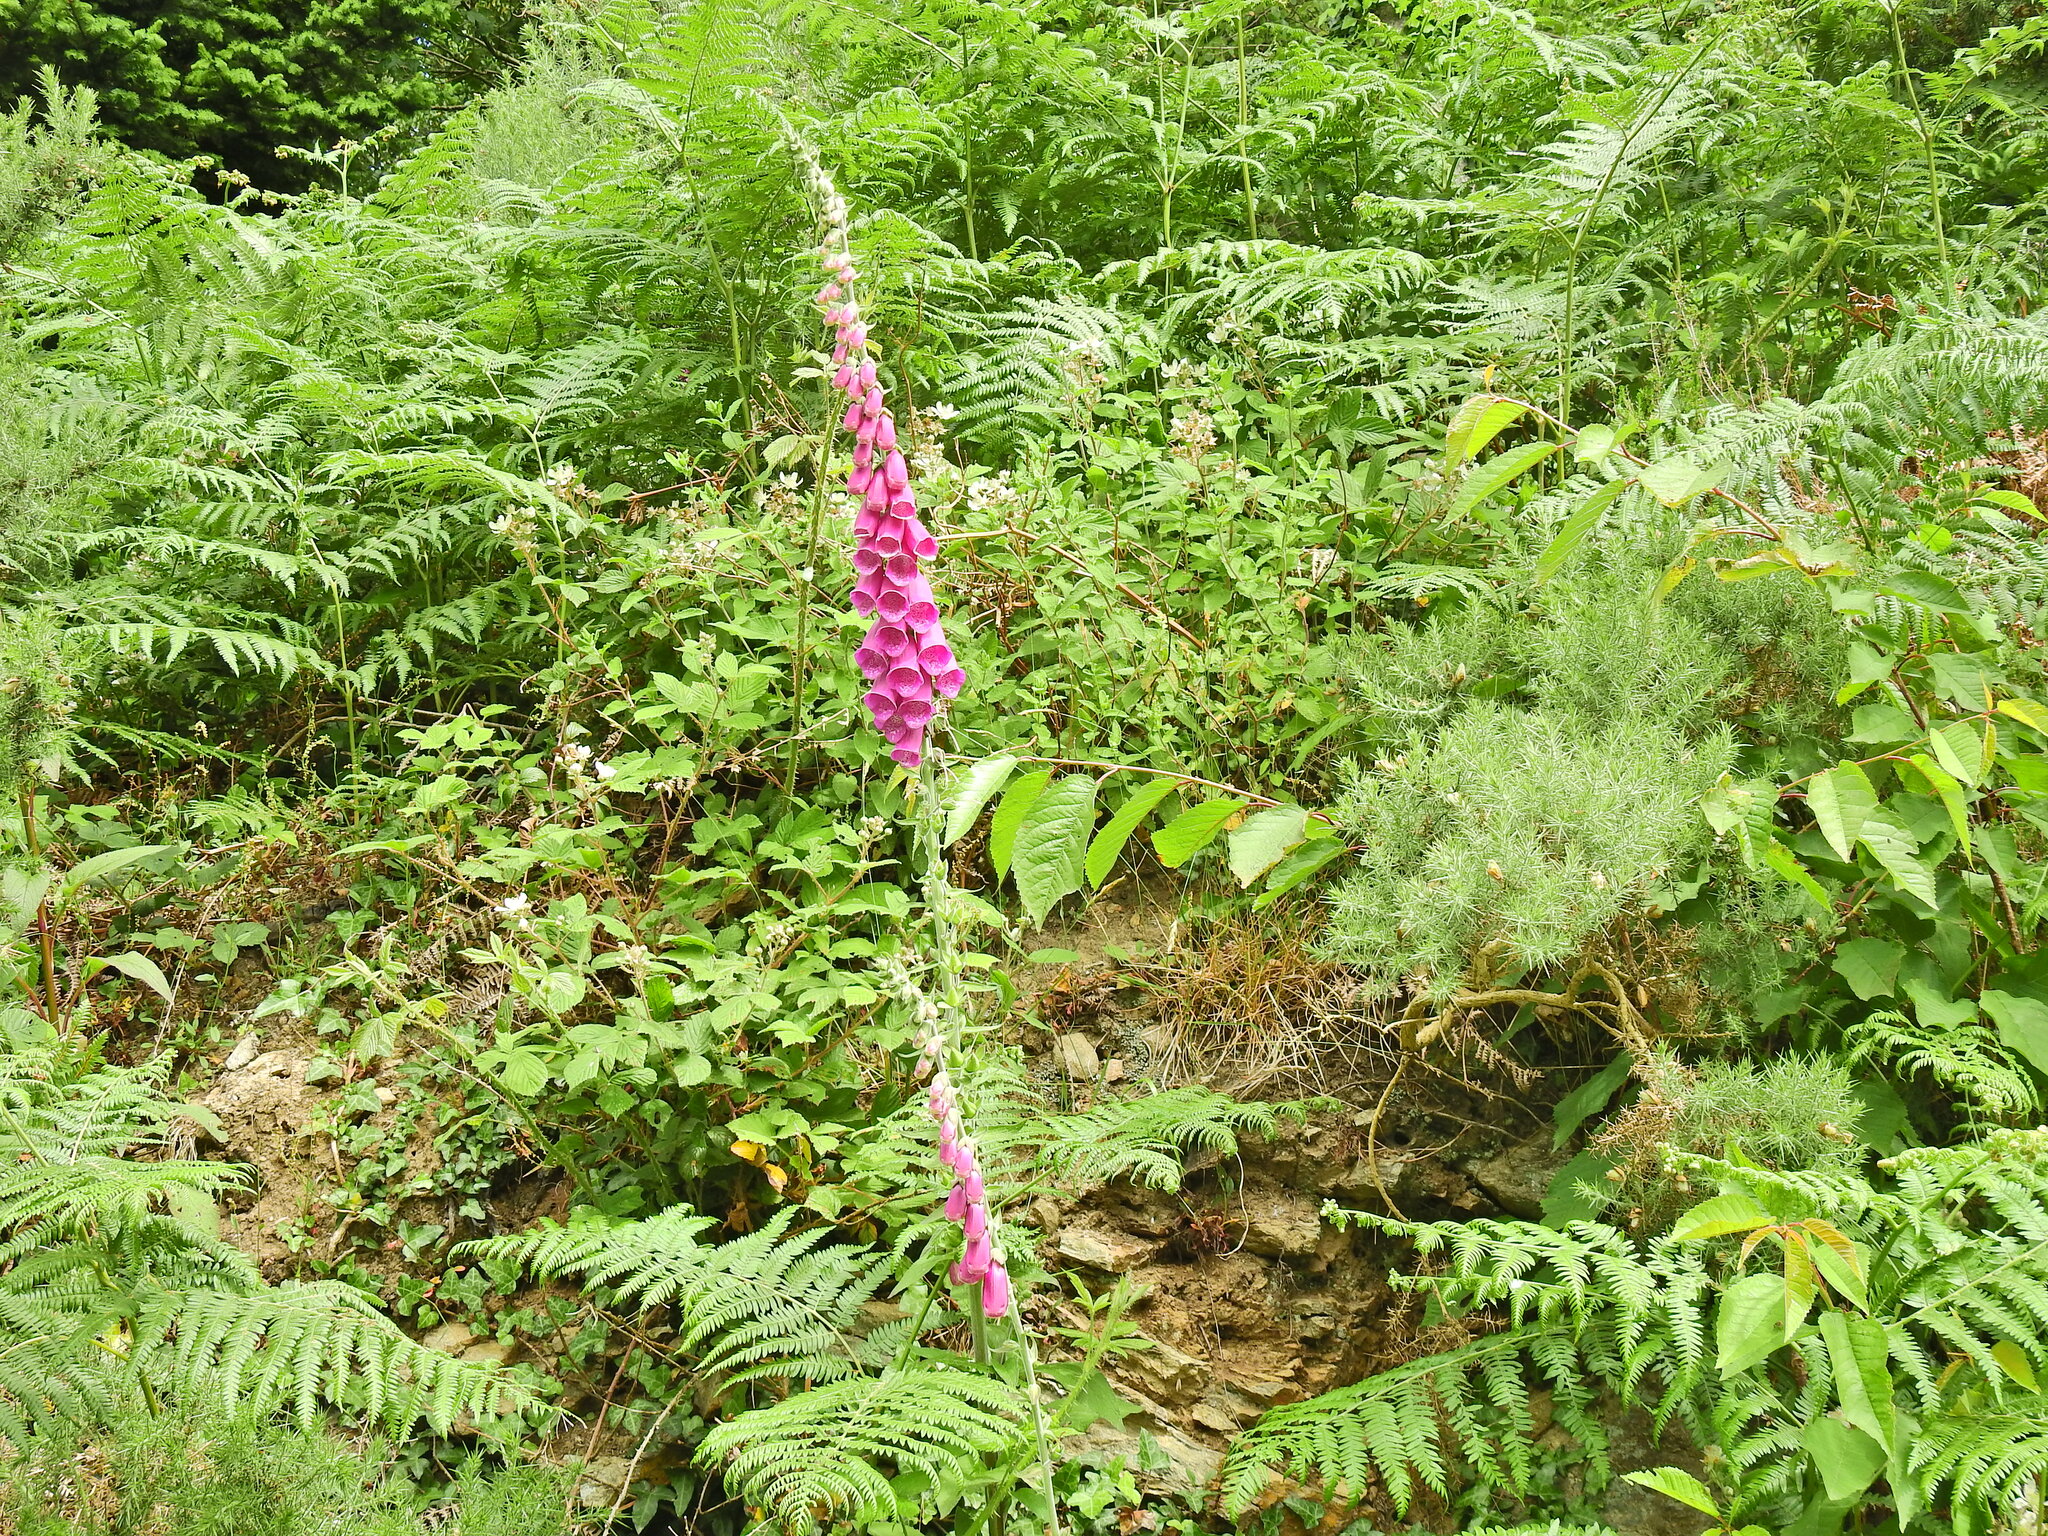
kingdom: Plantae
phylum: Tracheophyta
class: Magnoliopsida
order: Lamiales
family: Plantaginaceae
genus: Digitalis
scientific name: Digitalis purpurea
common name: Foxglove
